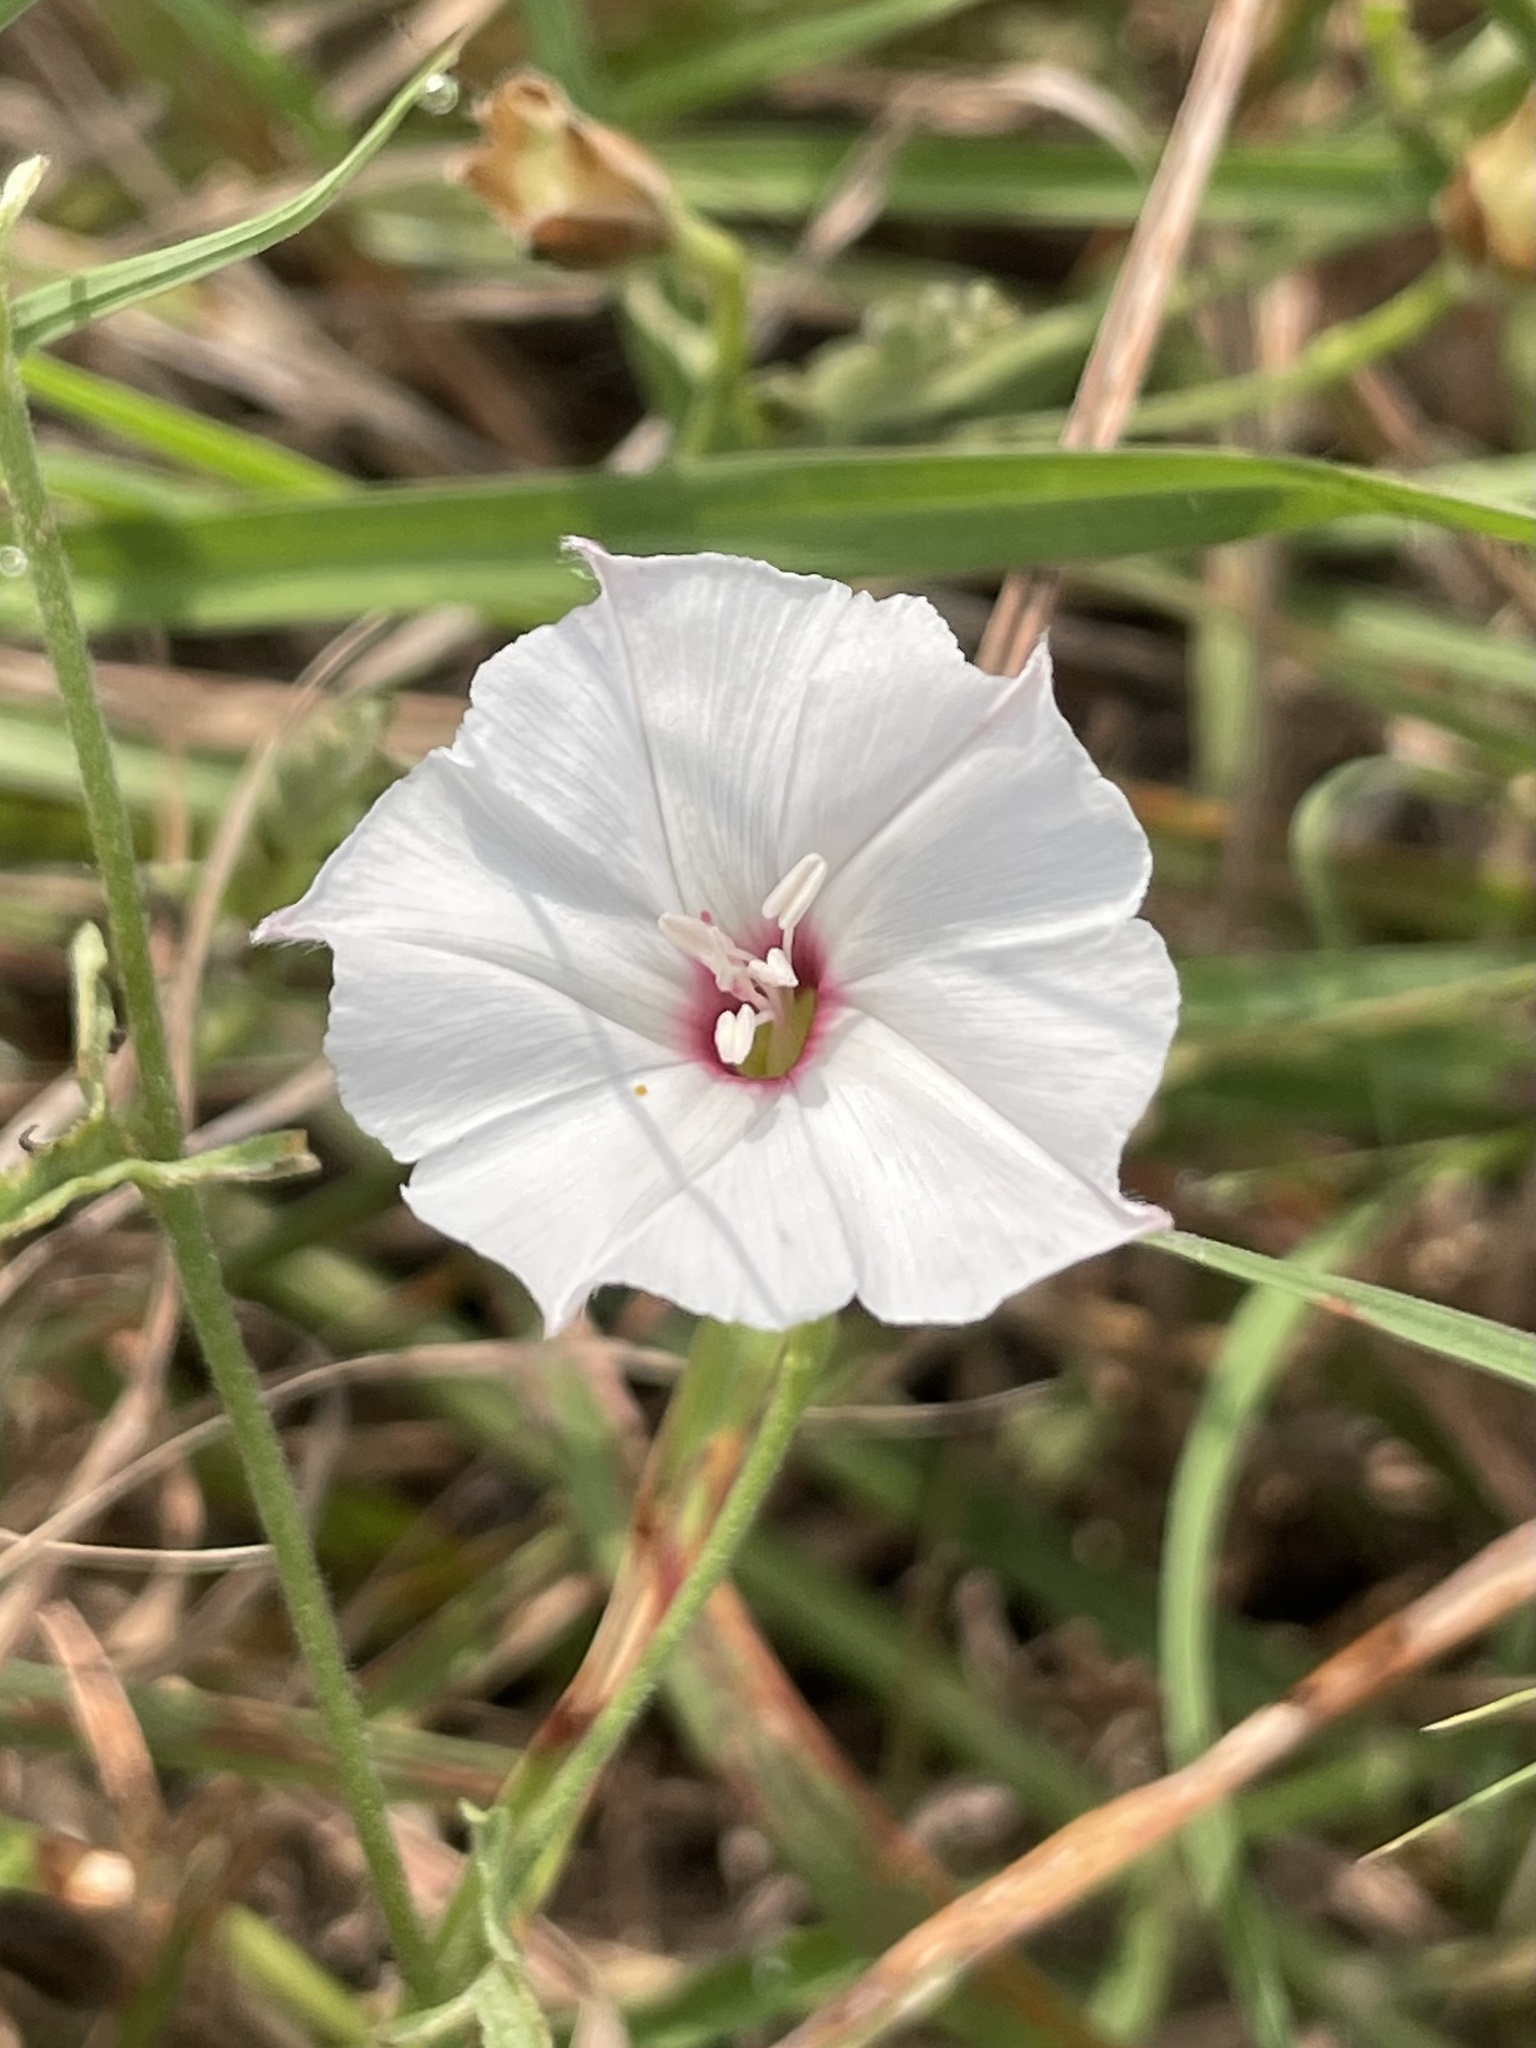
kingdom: Plantae
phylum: Tracheophyta
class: Magnoliopsida
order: Solanales
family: Convolvulaceae
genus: Convolvulus
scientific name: Convolvulus equitans
